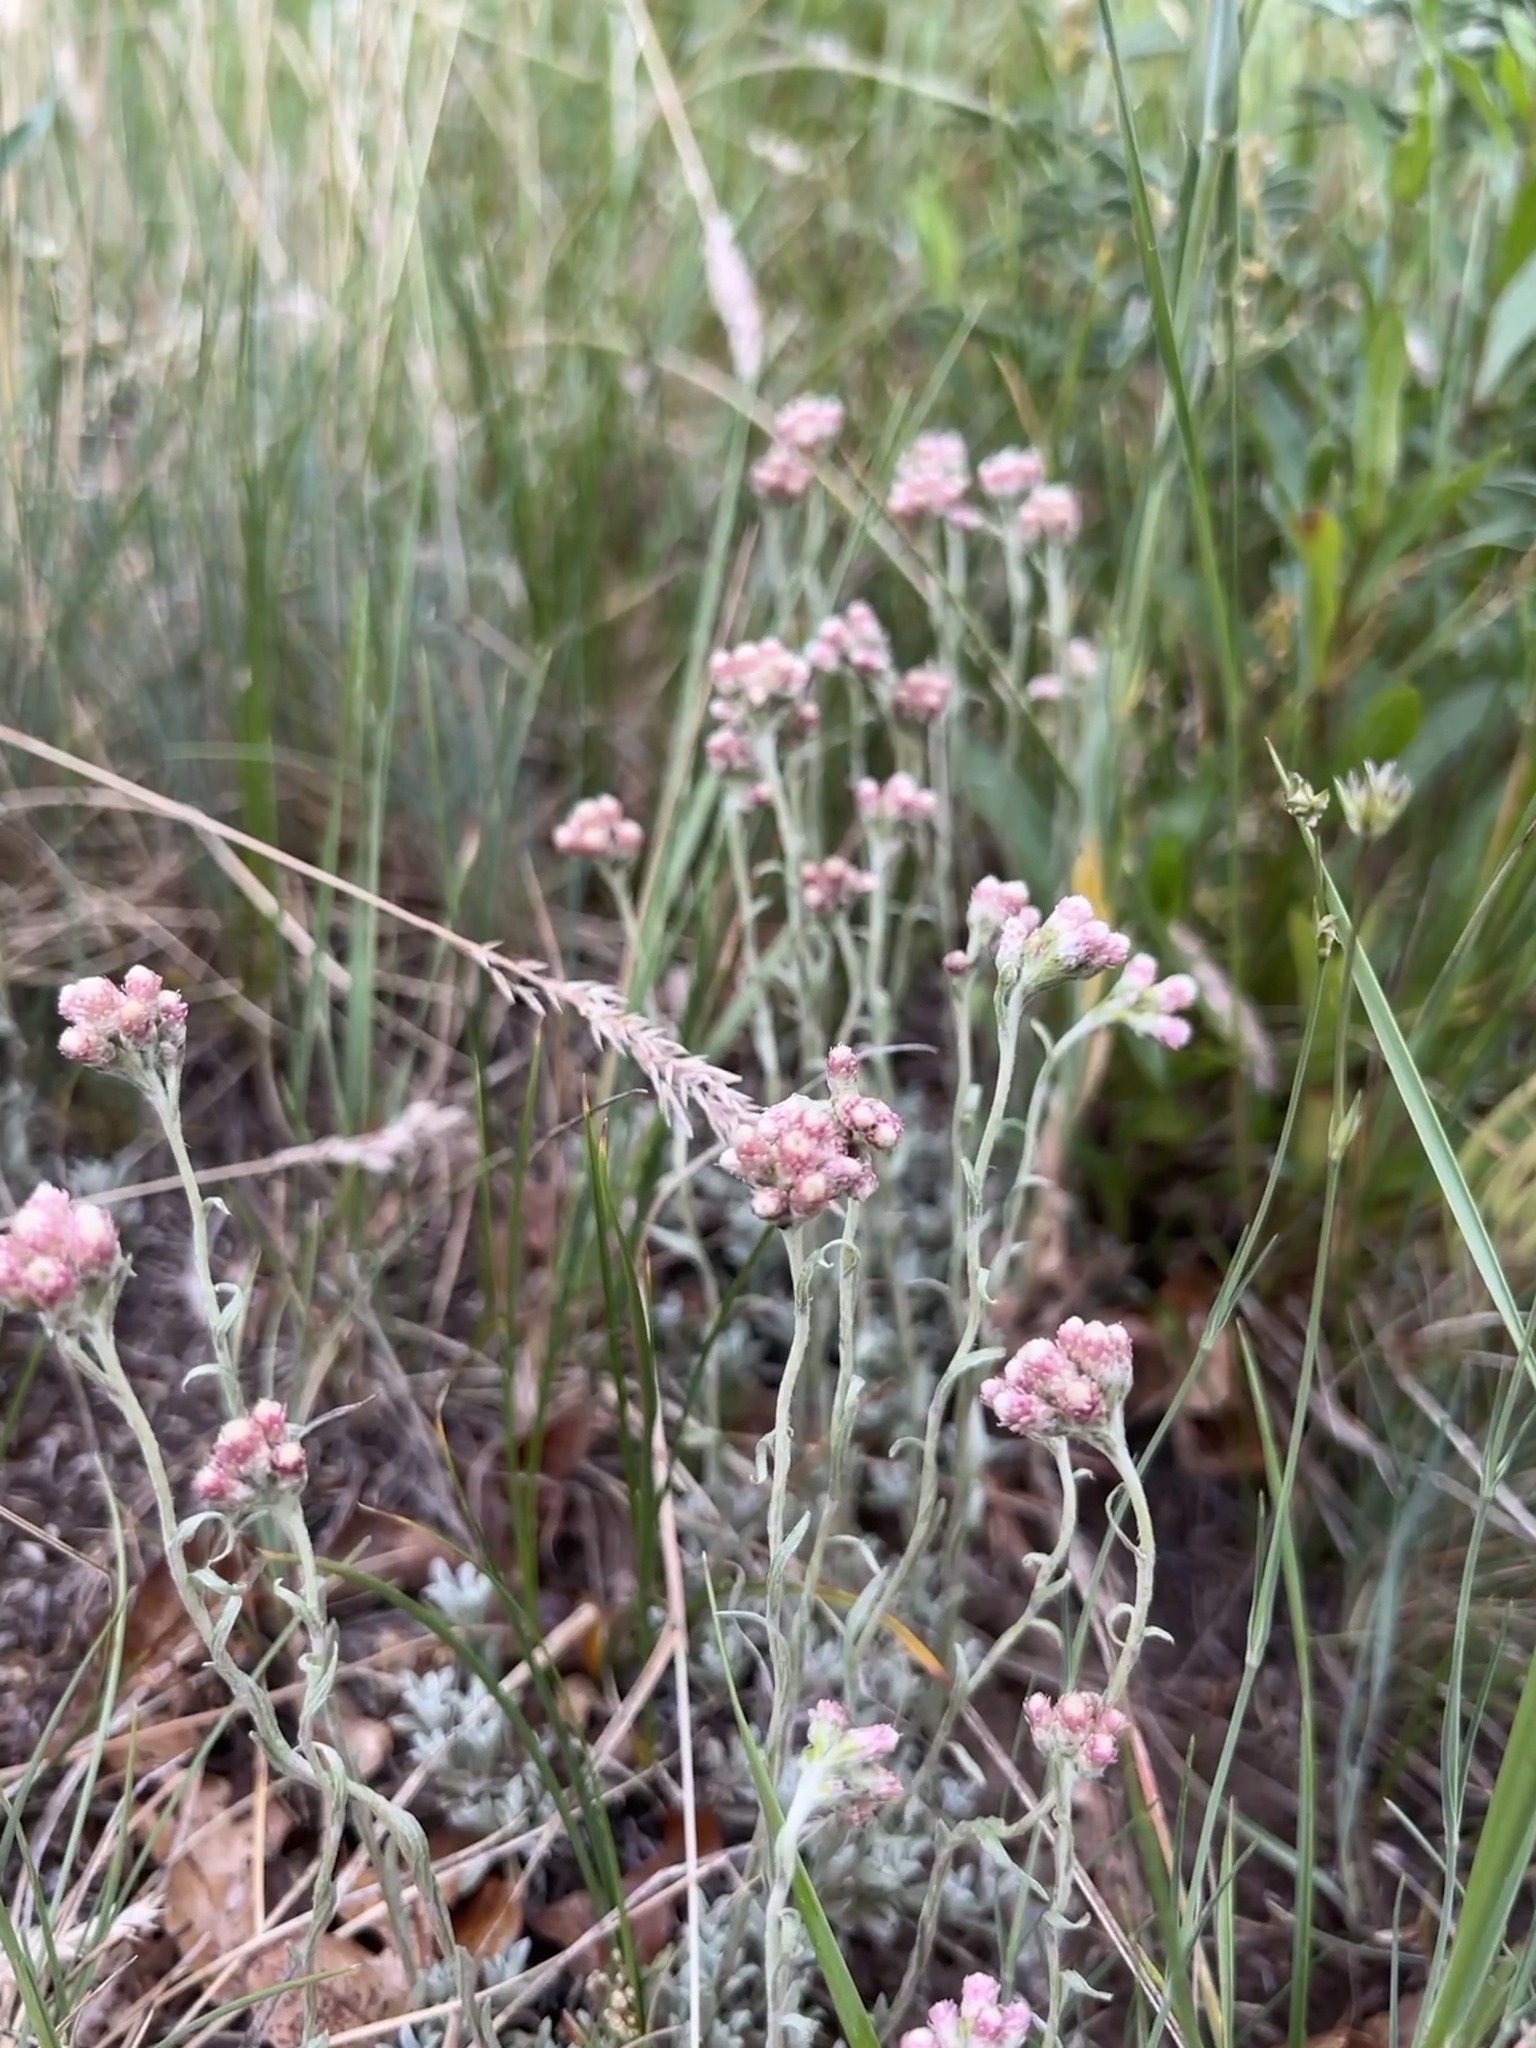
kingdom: Plantae
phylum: Tracheophyta
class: Magnoliopsida
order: Asterales
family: Asteraceae
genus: Antennaria
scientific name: Antennaria rosea
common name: Rosy pussytoes
